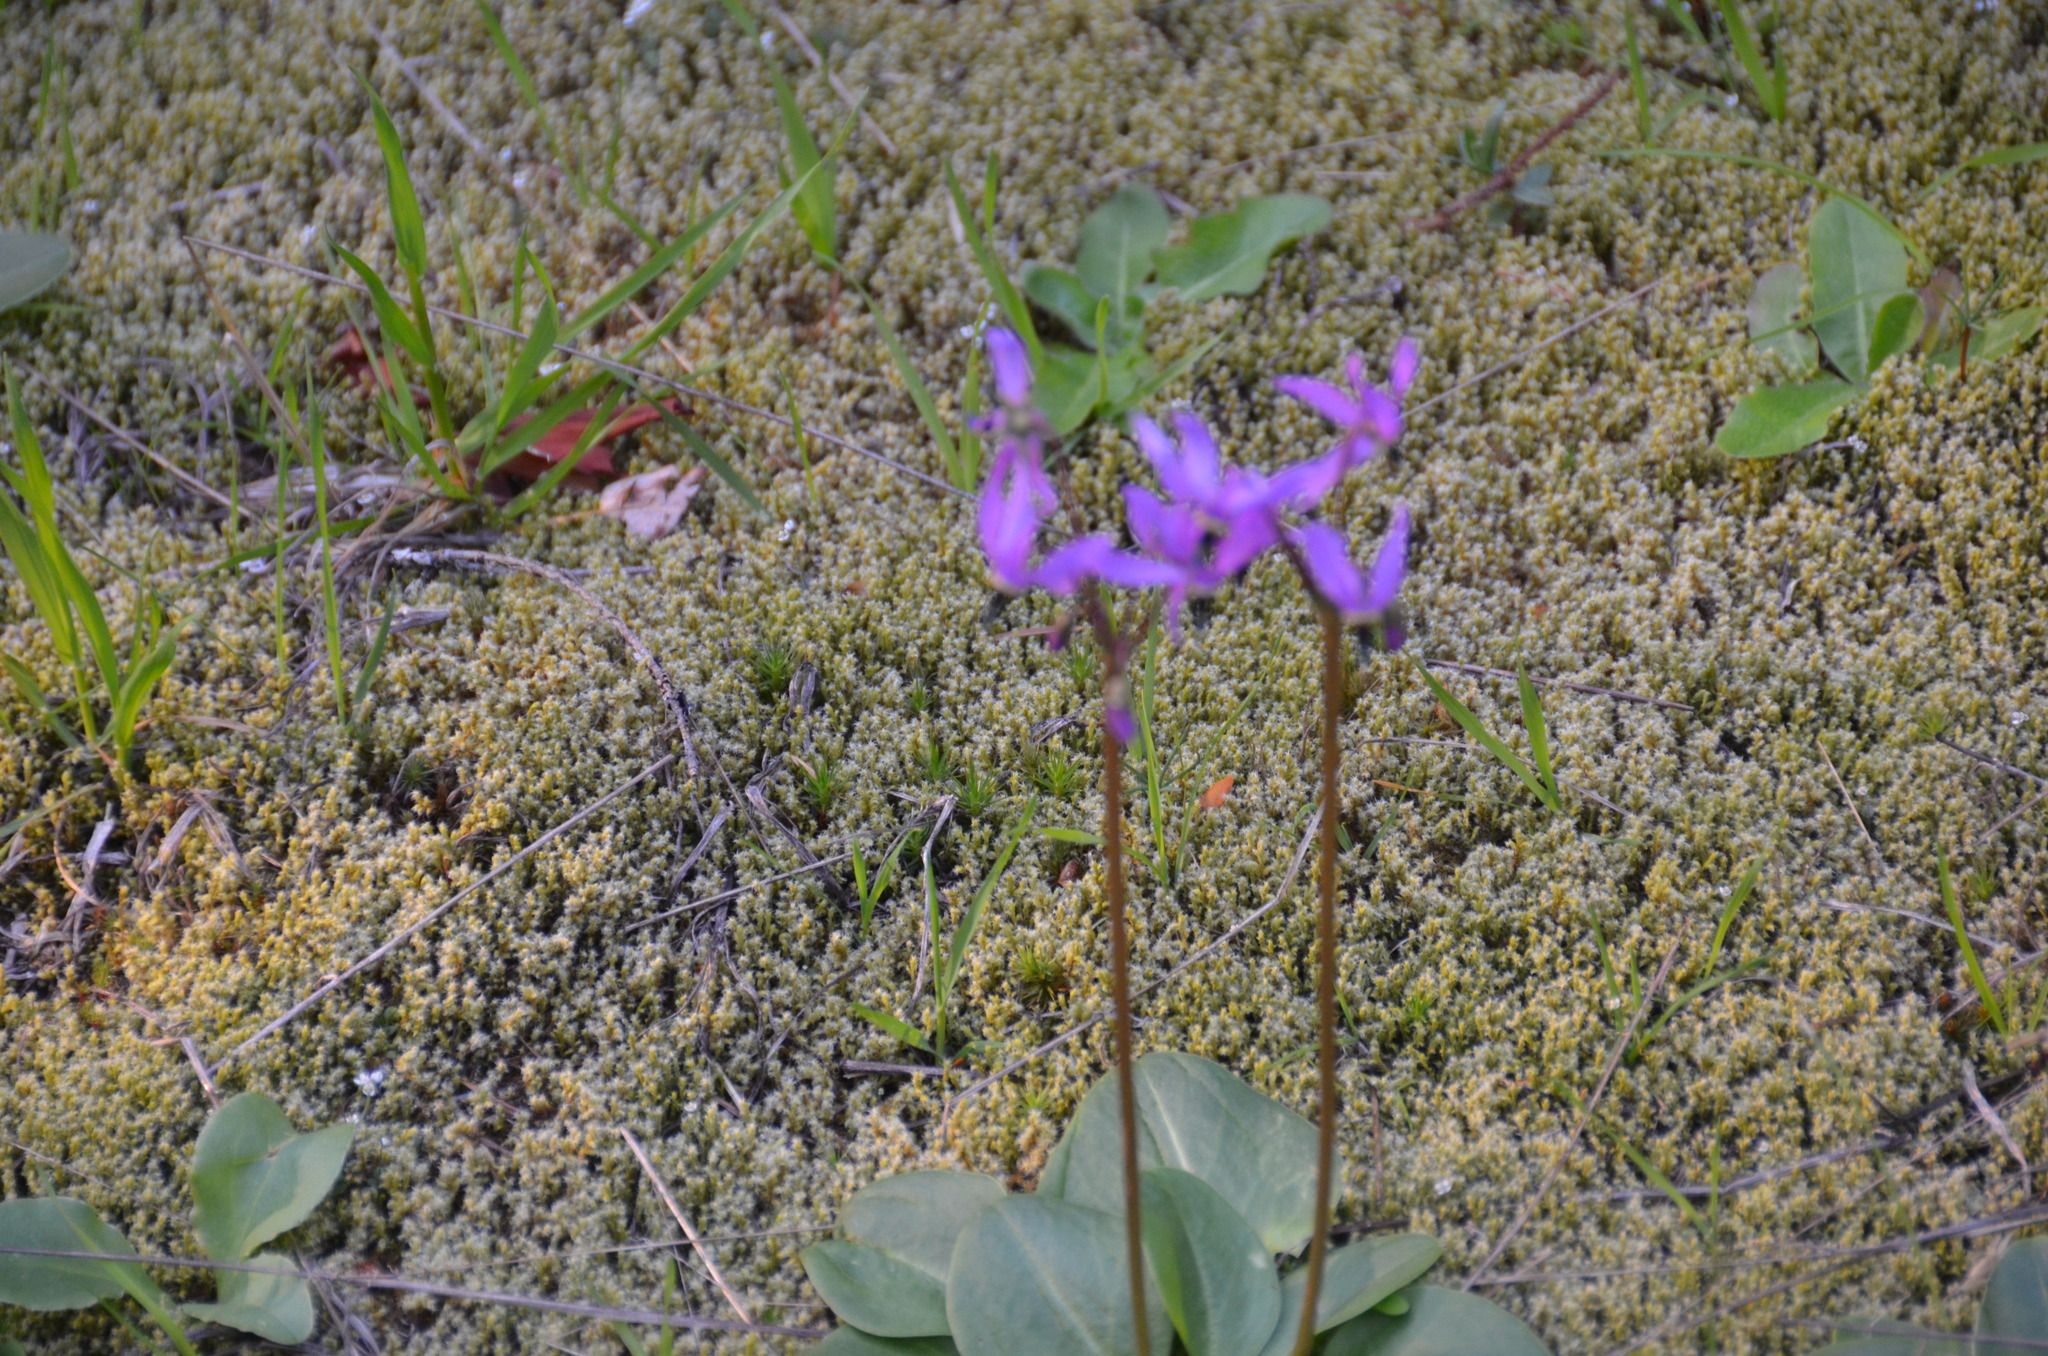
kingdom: Plantae
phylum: Bryophyta
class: Bryopsida
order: Grimmiales
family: Grimmiaceae
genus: Niphotrichum
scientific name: Niphotrichum elongatum
